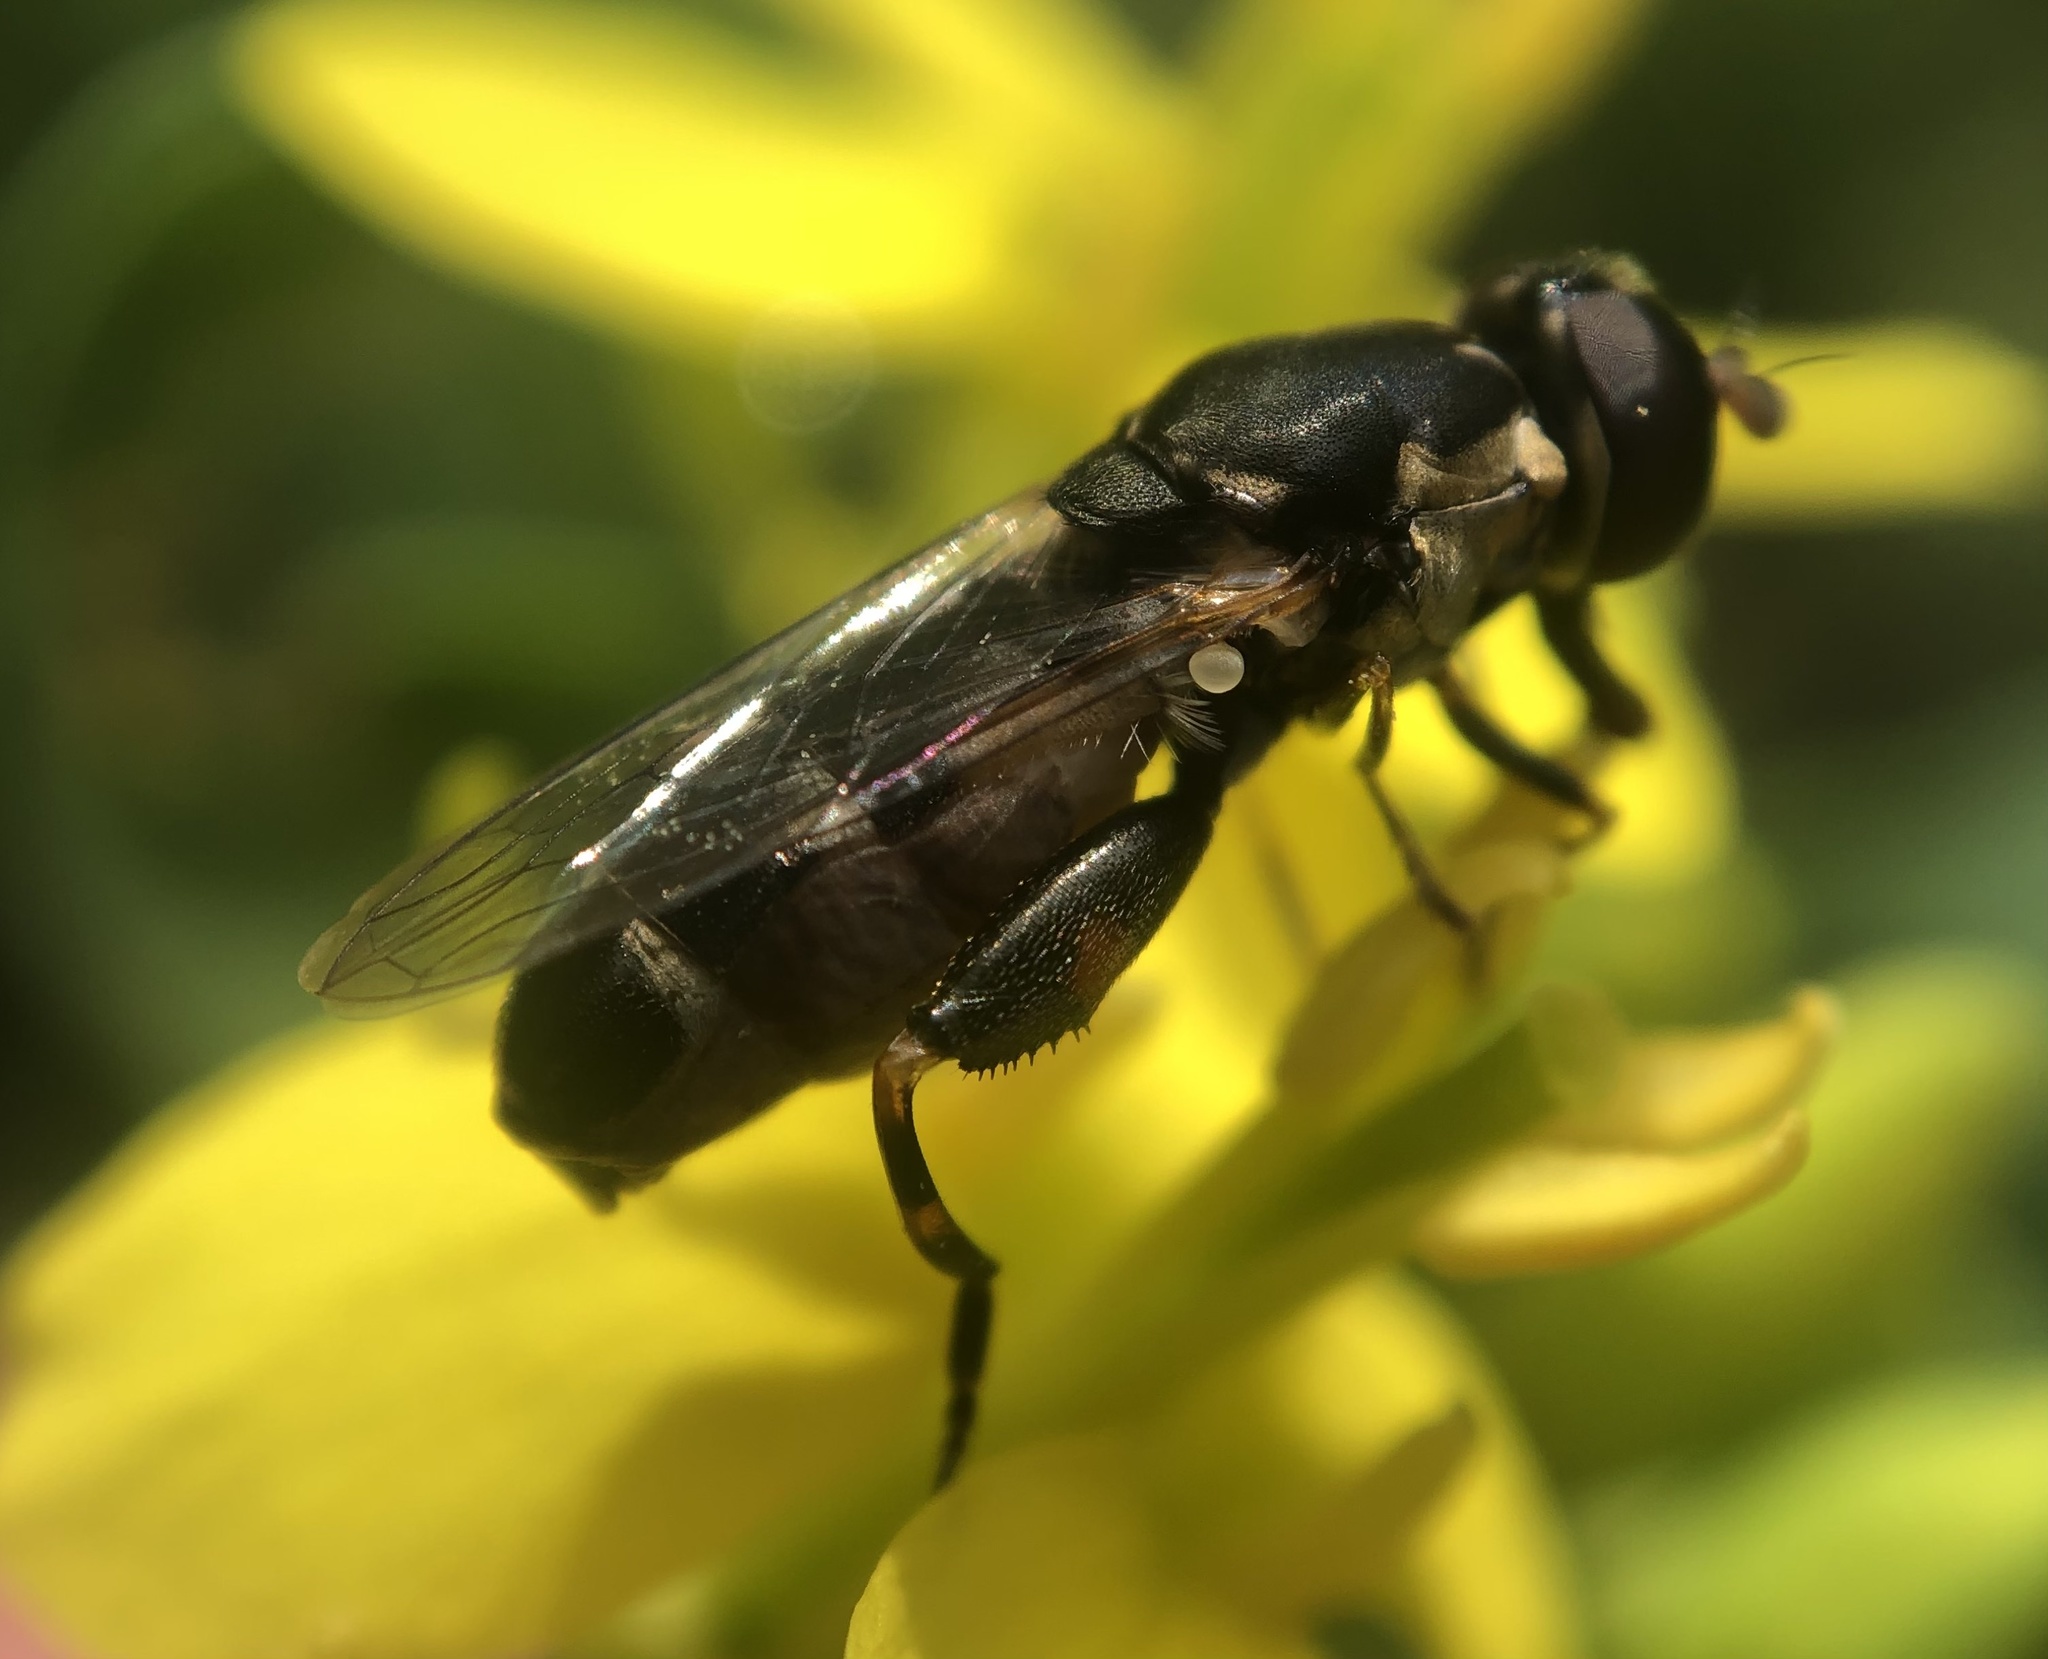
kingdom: Animalia
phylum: Arthropoda
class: Insecta
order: Diptera
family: Syrphidae
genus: Syritta
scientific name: Syritta pipiens
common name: Hover fly
